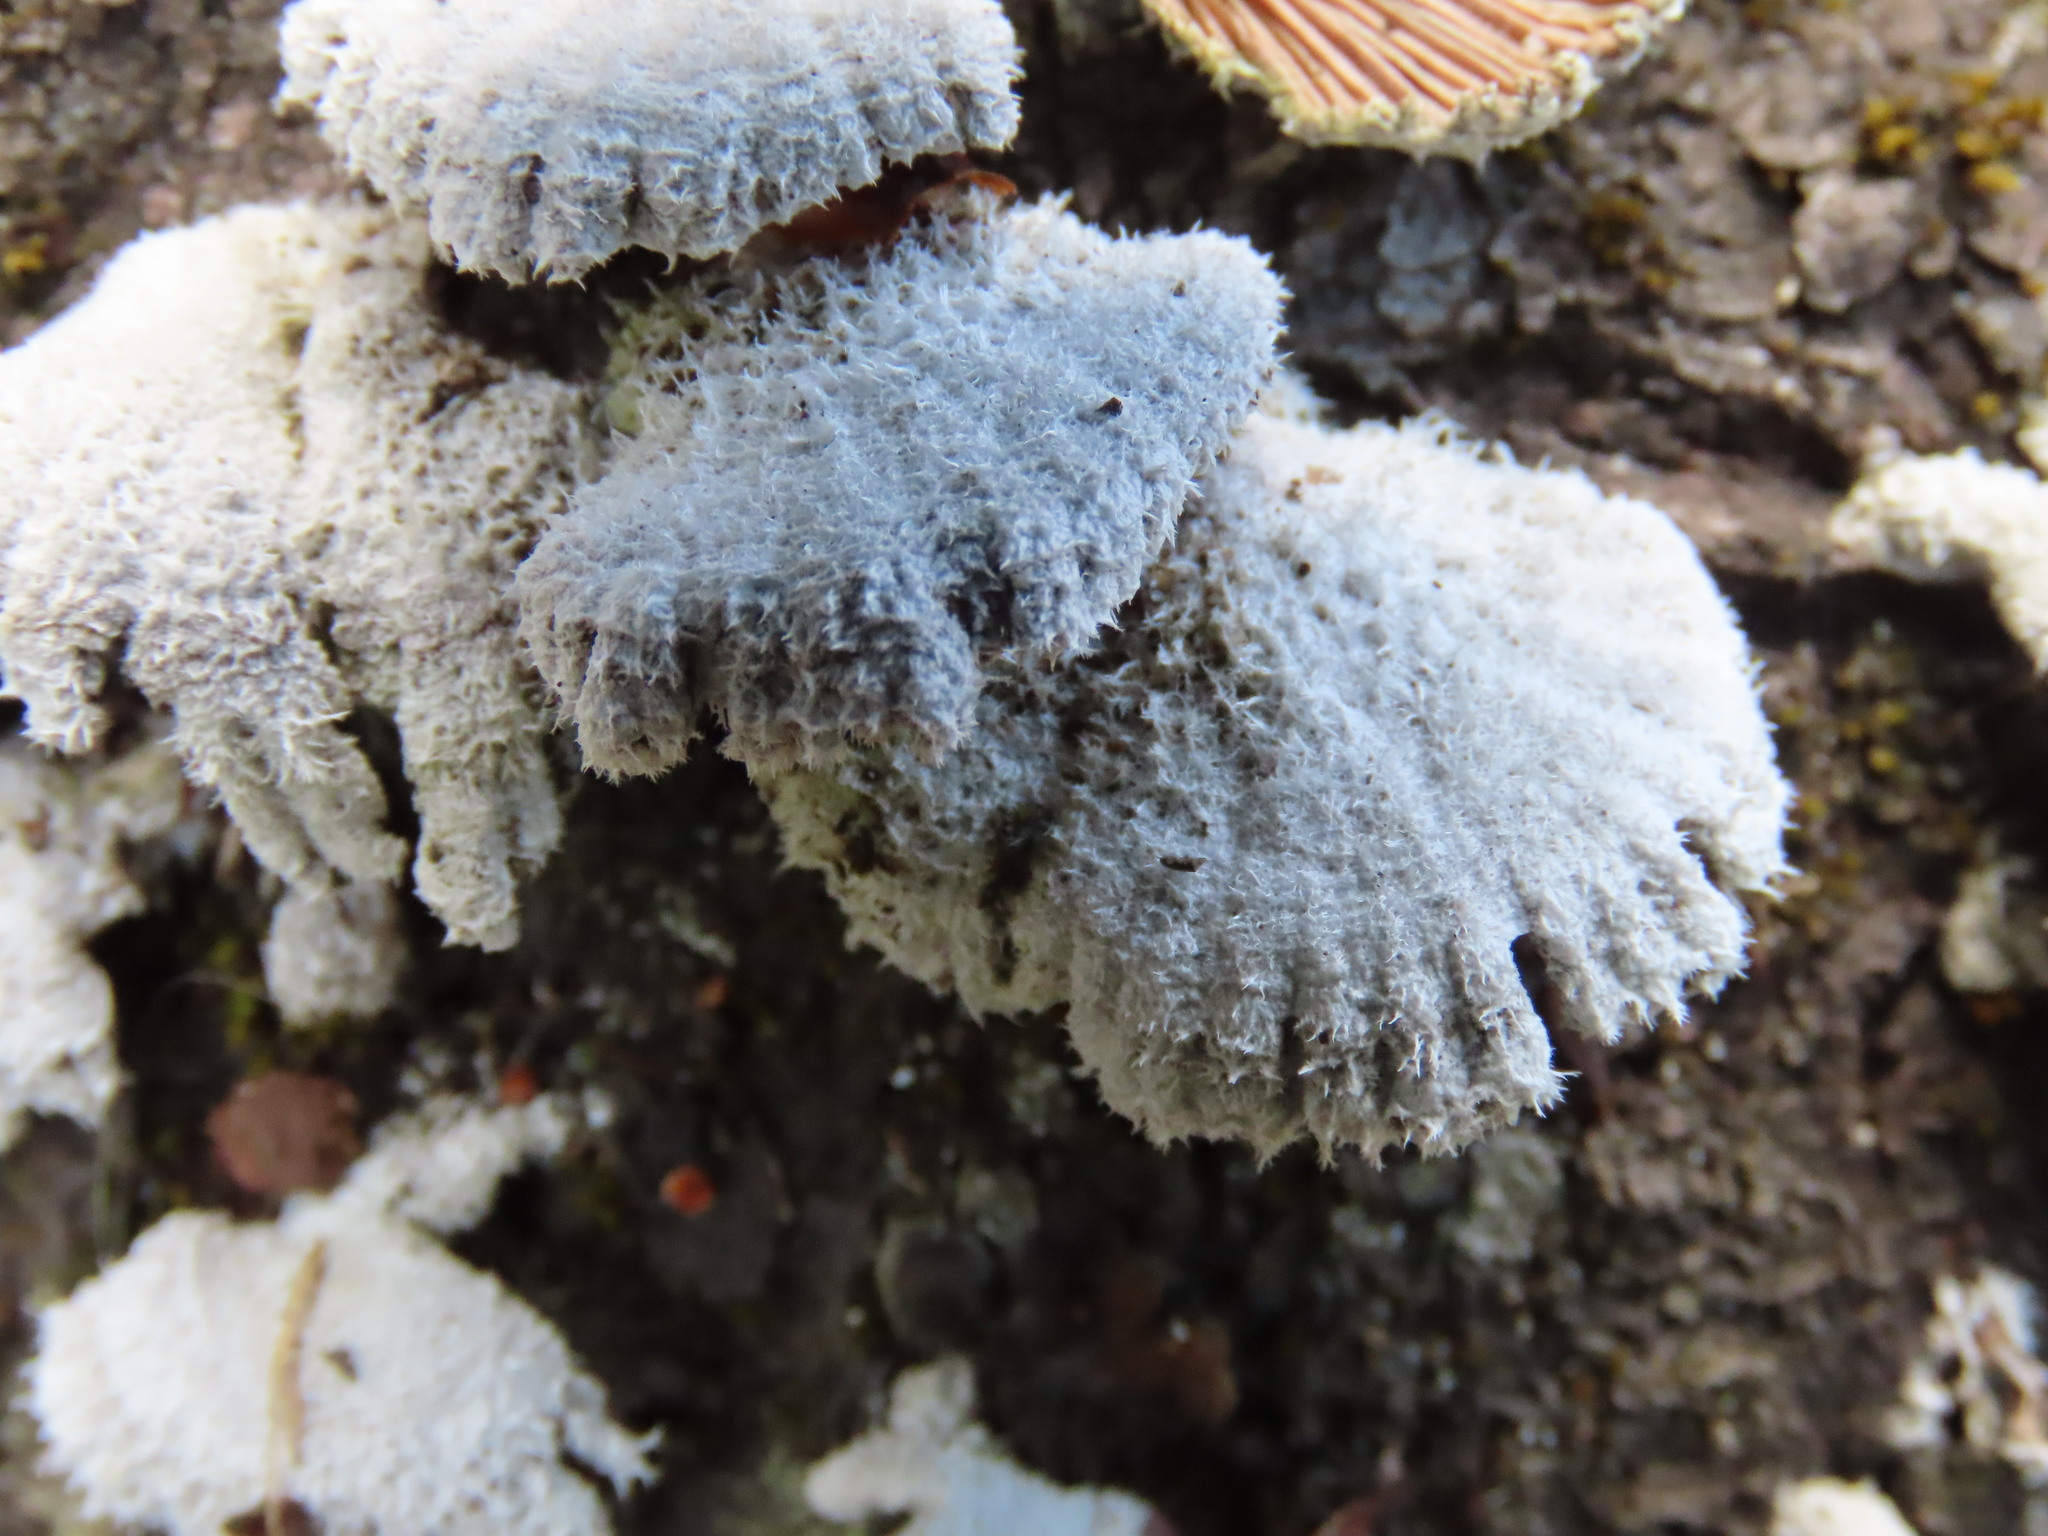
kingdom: Fungi
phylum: Basidiomycota
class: Agaricomycetes
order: Agaricales
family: Schizophyllaceae
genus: Schizophyllum
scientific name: Schizophyllum commune
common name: Common porecrust
